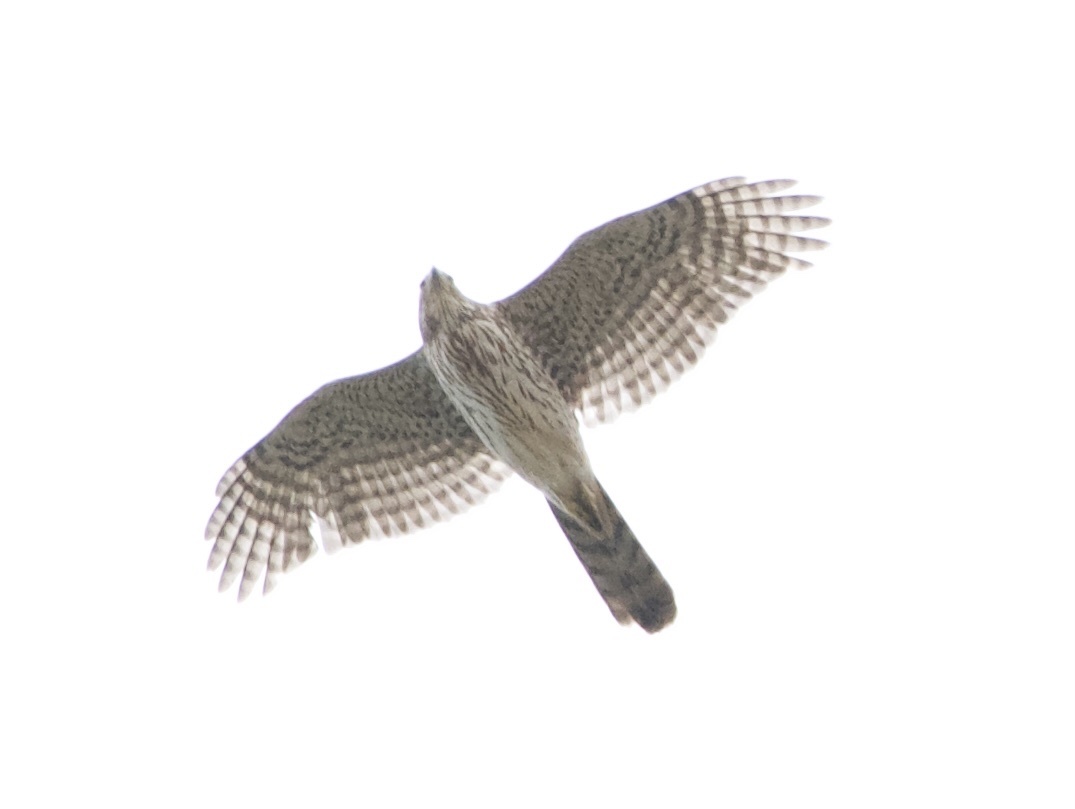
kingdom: Animalia
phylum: Chordata
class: Aves
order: Accipitriformes
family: Accipitridae
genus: Accipiter
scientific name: Accipiter cooperii
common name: Cooper's hawk
